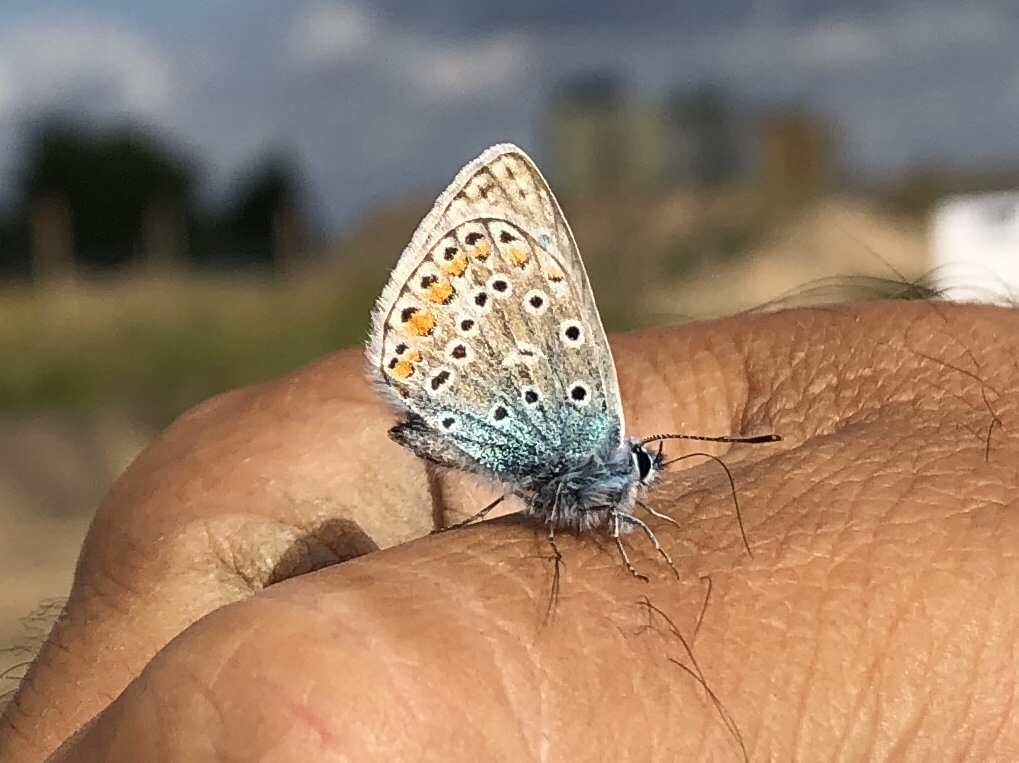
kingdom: Animalia
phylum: Arthropoda
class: Insecta
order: Lepidoptera
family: Lycaenidae
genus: Polyommatus
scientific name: Polyommatus icarus
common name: Common blue
